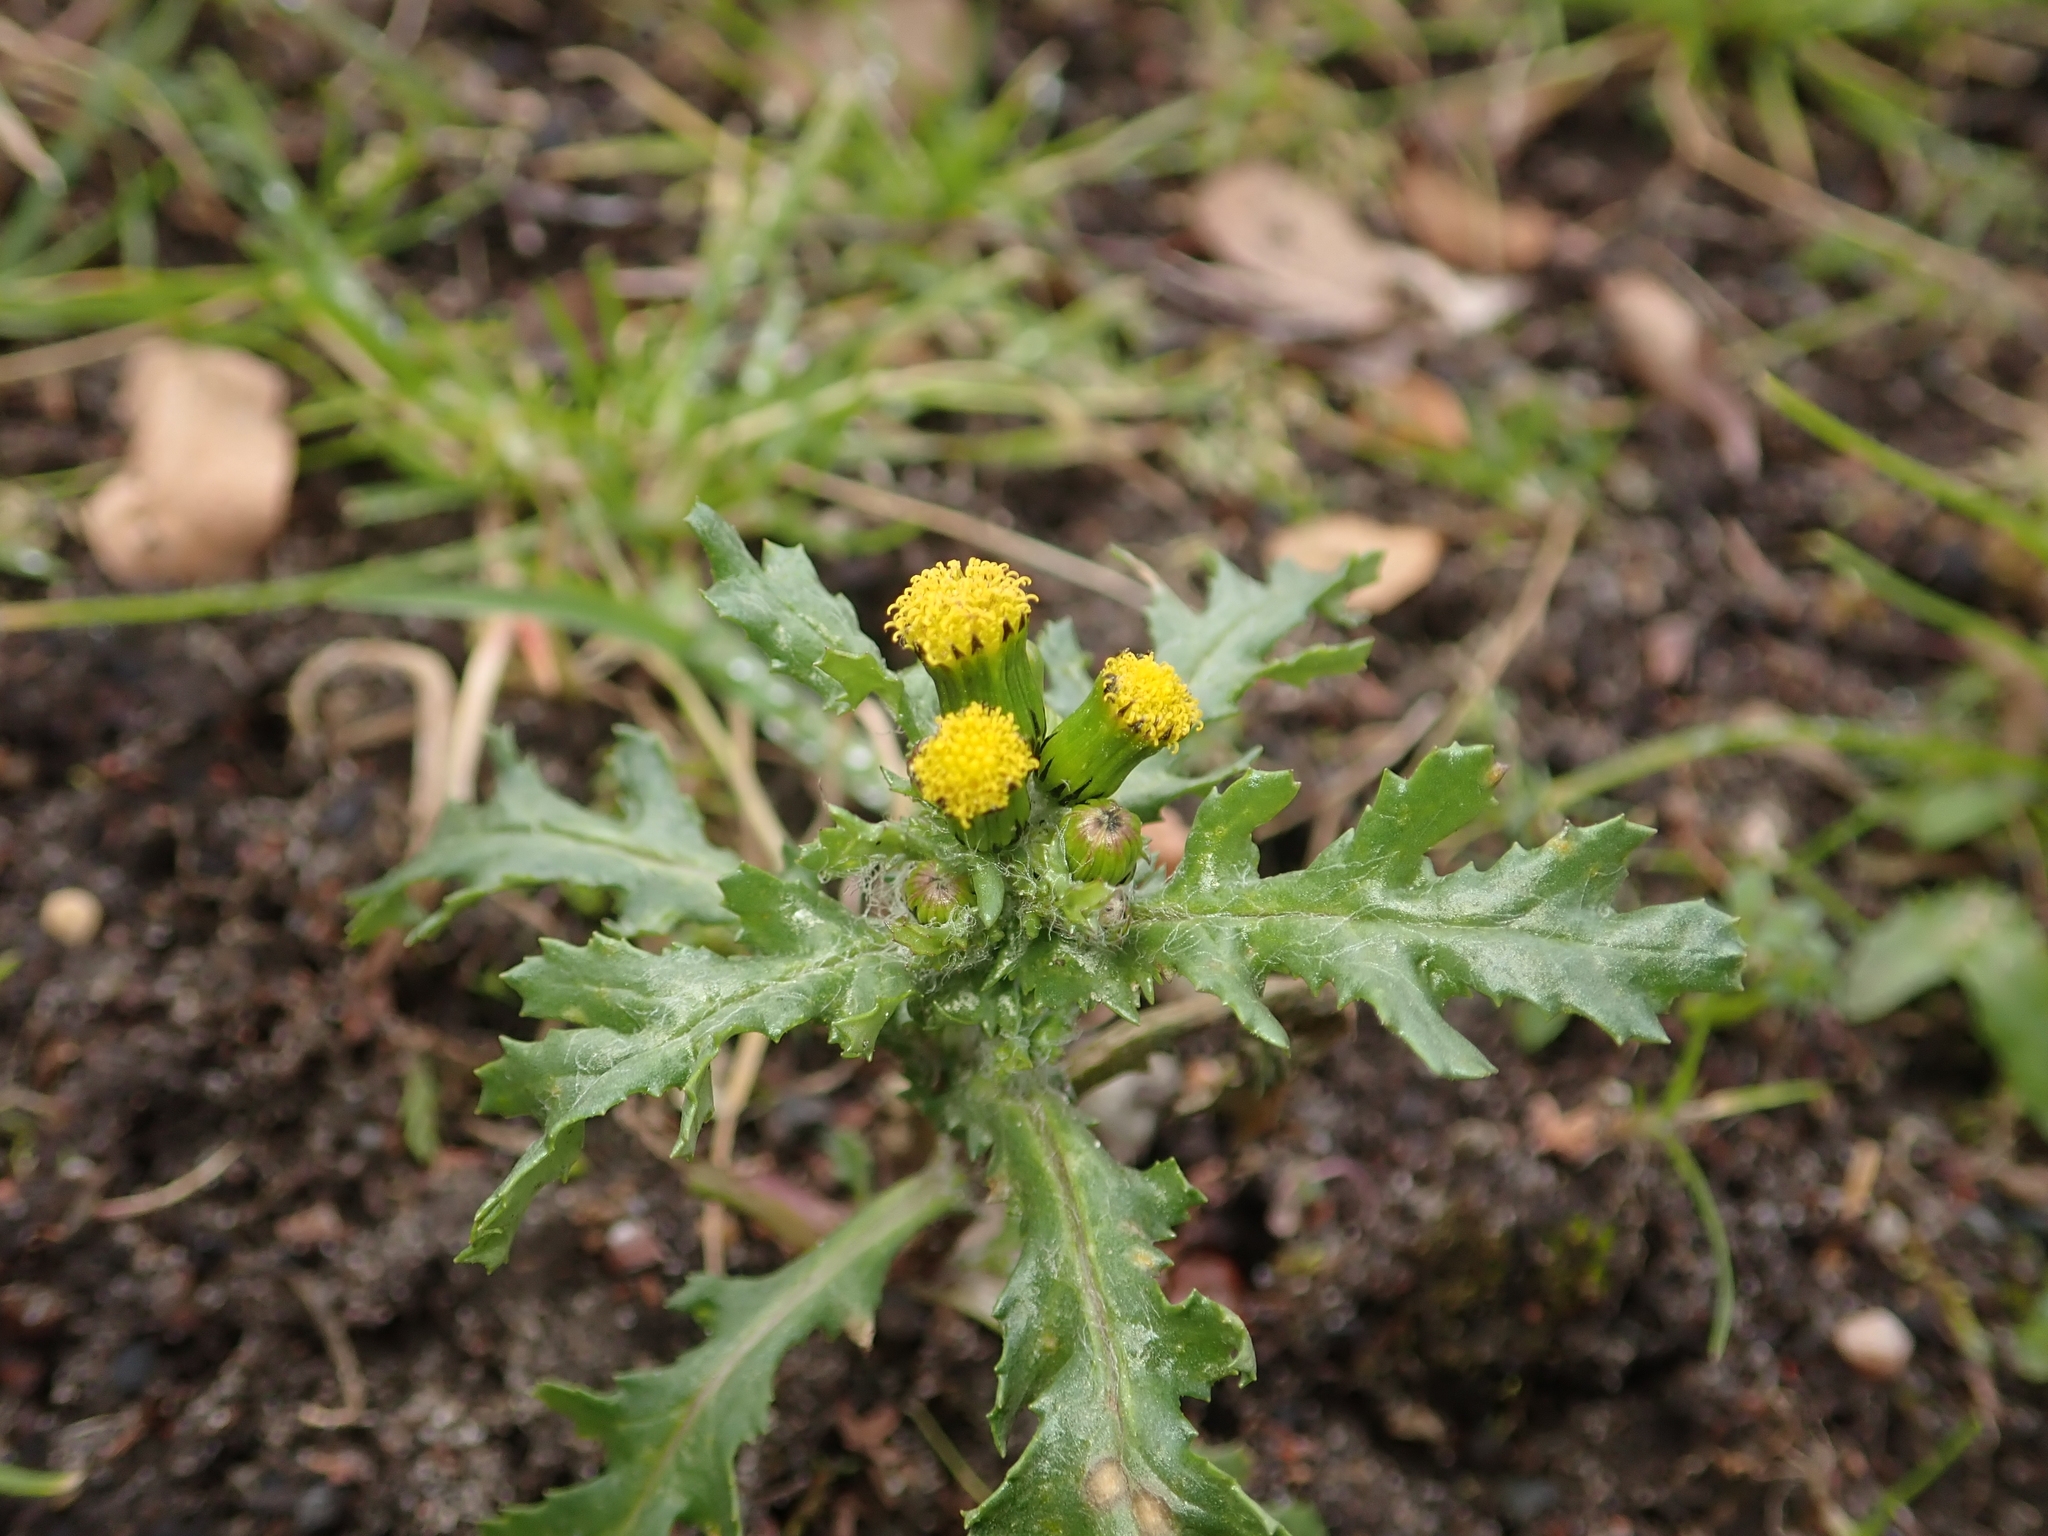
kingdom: Plantae
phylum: Tracheophyta
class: Magnoliopsida
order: Asterales
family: Asteraceae
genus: Senecio
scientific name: Senecio vulgaris
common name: Old-man-in-the-spring
